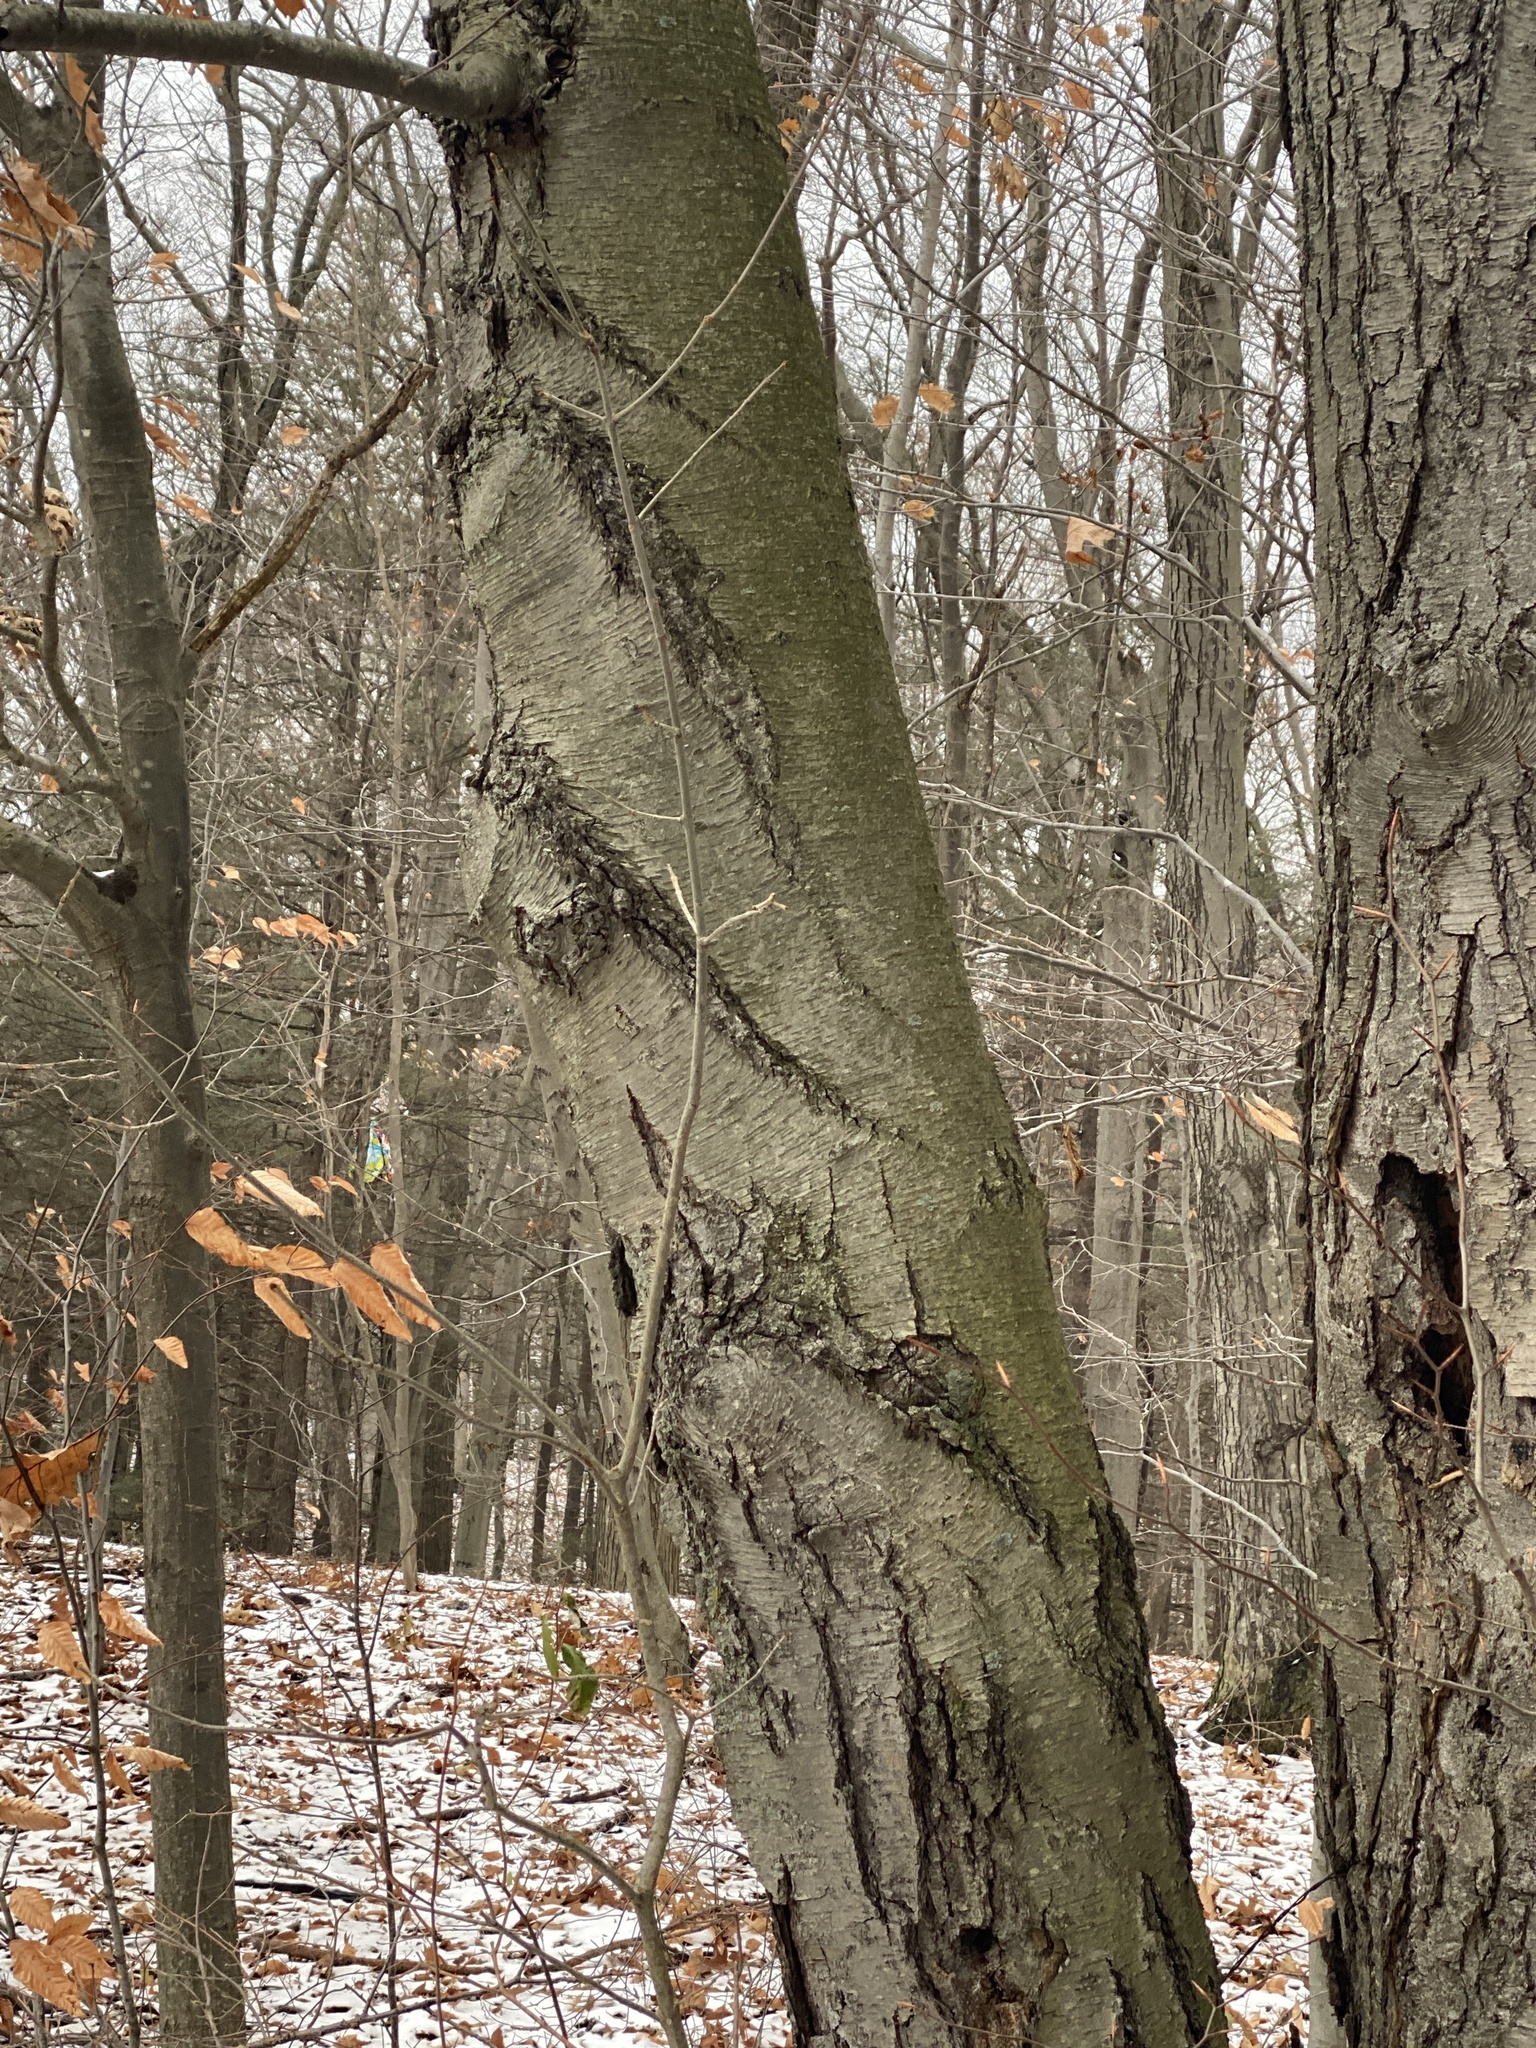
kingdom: Plantae
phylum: Tracheophyta
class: Magnoliopsida
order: Fagales
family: Betulaceae
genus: Betula
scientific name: Betula lenta
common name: Black birch
